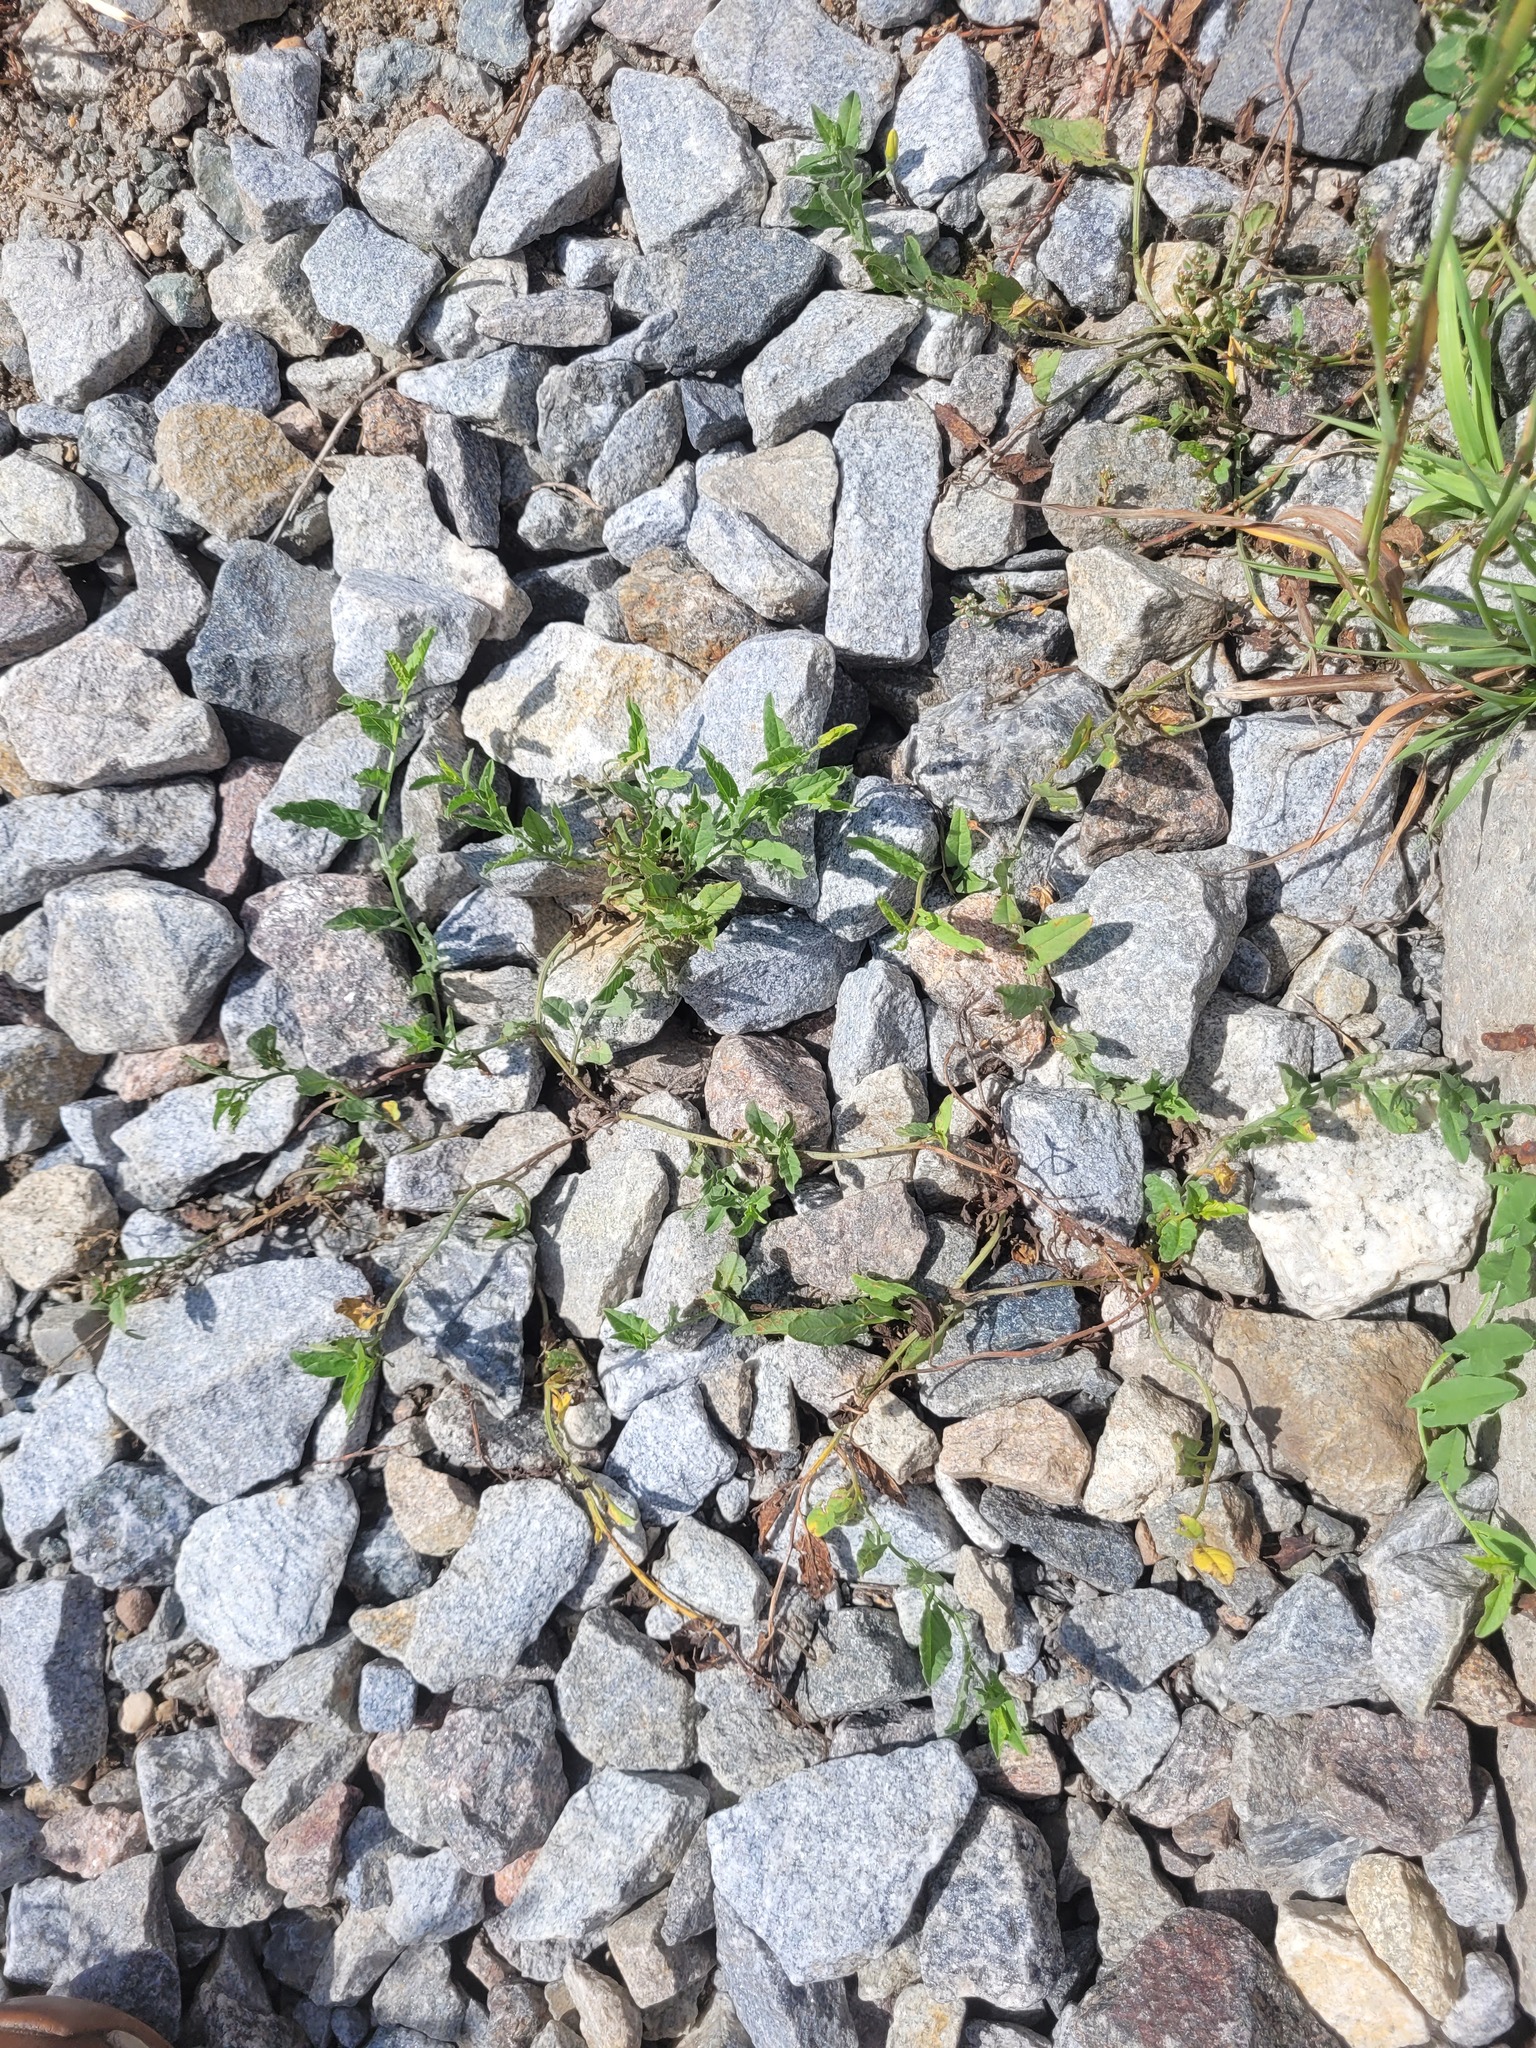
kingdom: Plantae
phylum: Tracheophyta
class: Magnoliopsida
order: Solanales
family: Convolvulaceae
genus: Convolvulus
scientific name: Convolvulus arvensis
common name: Field bindweed
